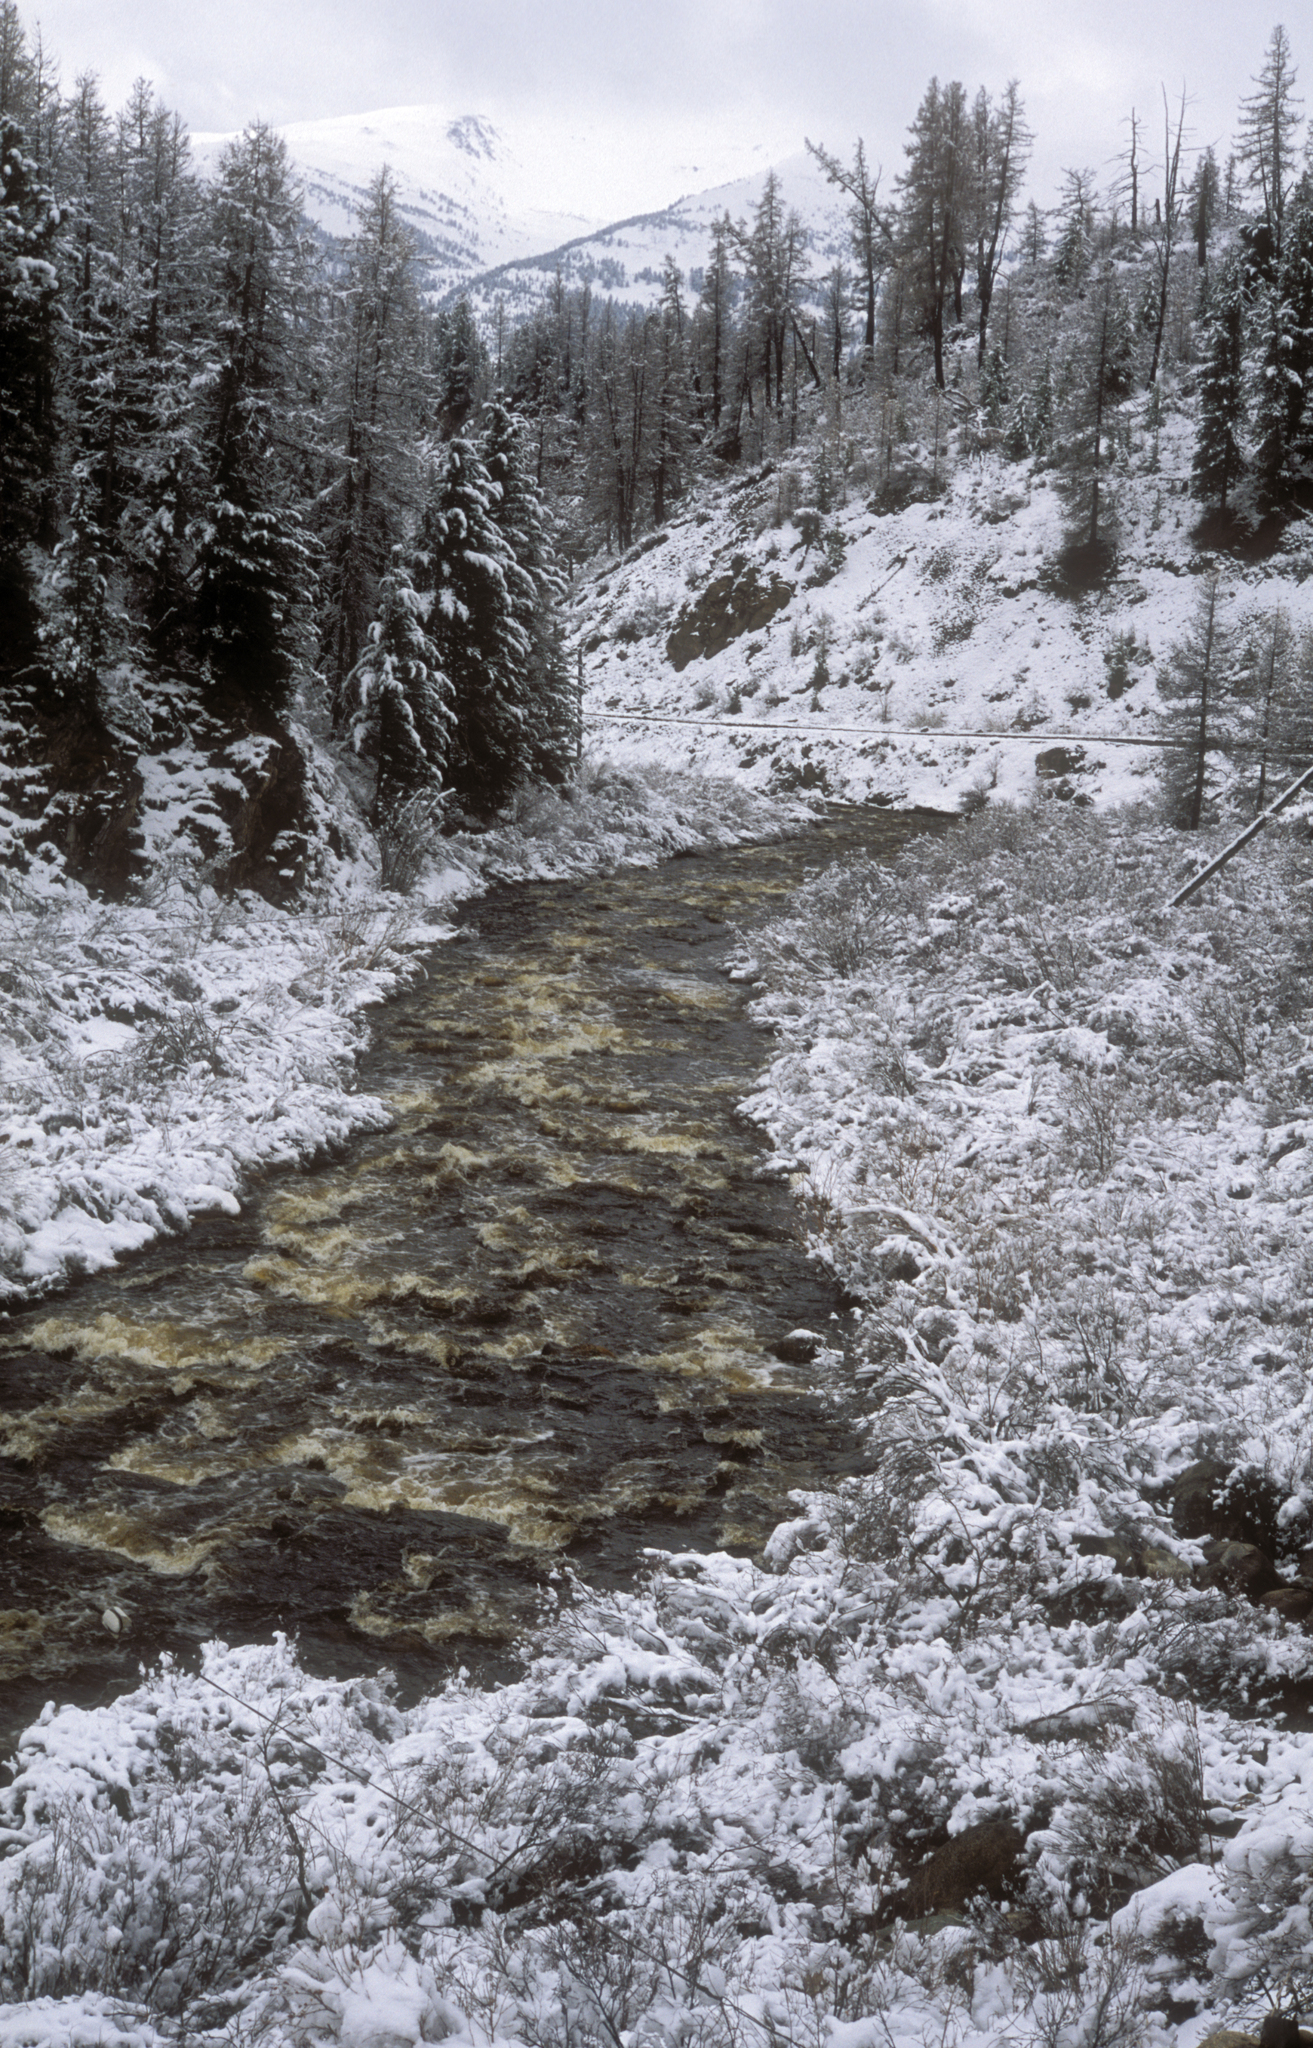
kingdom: Plantae
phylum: Tracheophyta
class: Pinopsida
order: Pinales
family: Pinaceae
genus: Larix
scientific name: Larix sibirica
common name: Siberian larch
